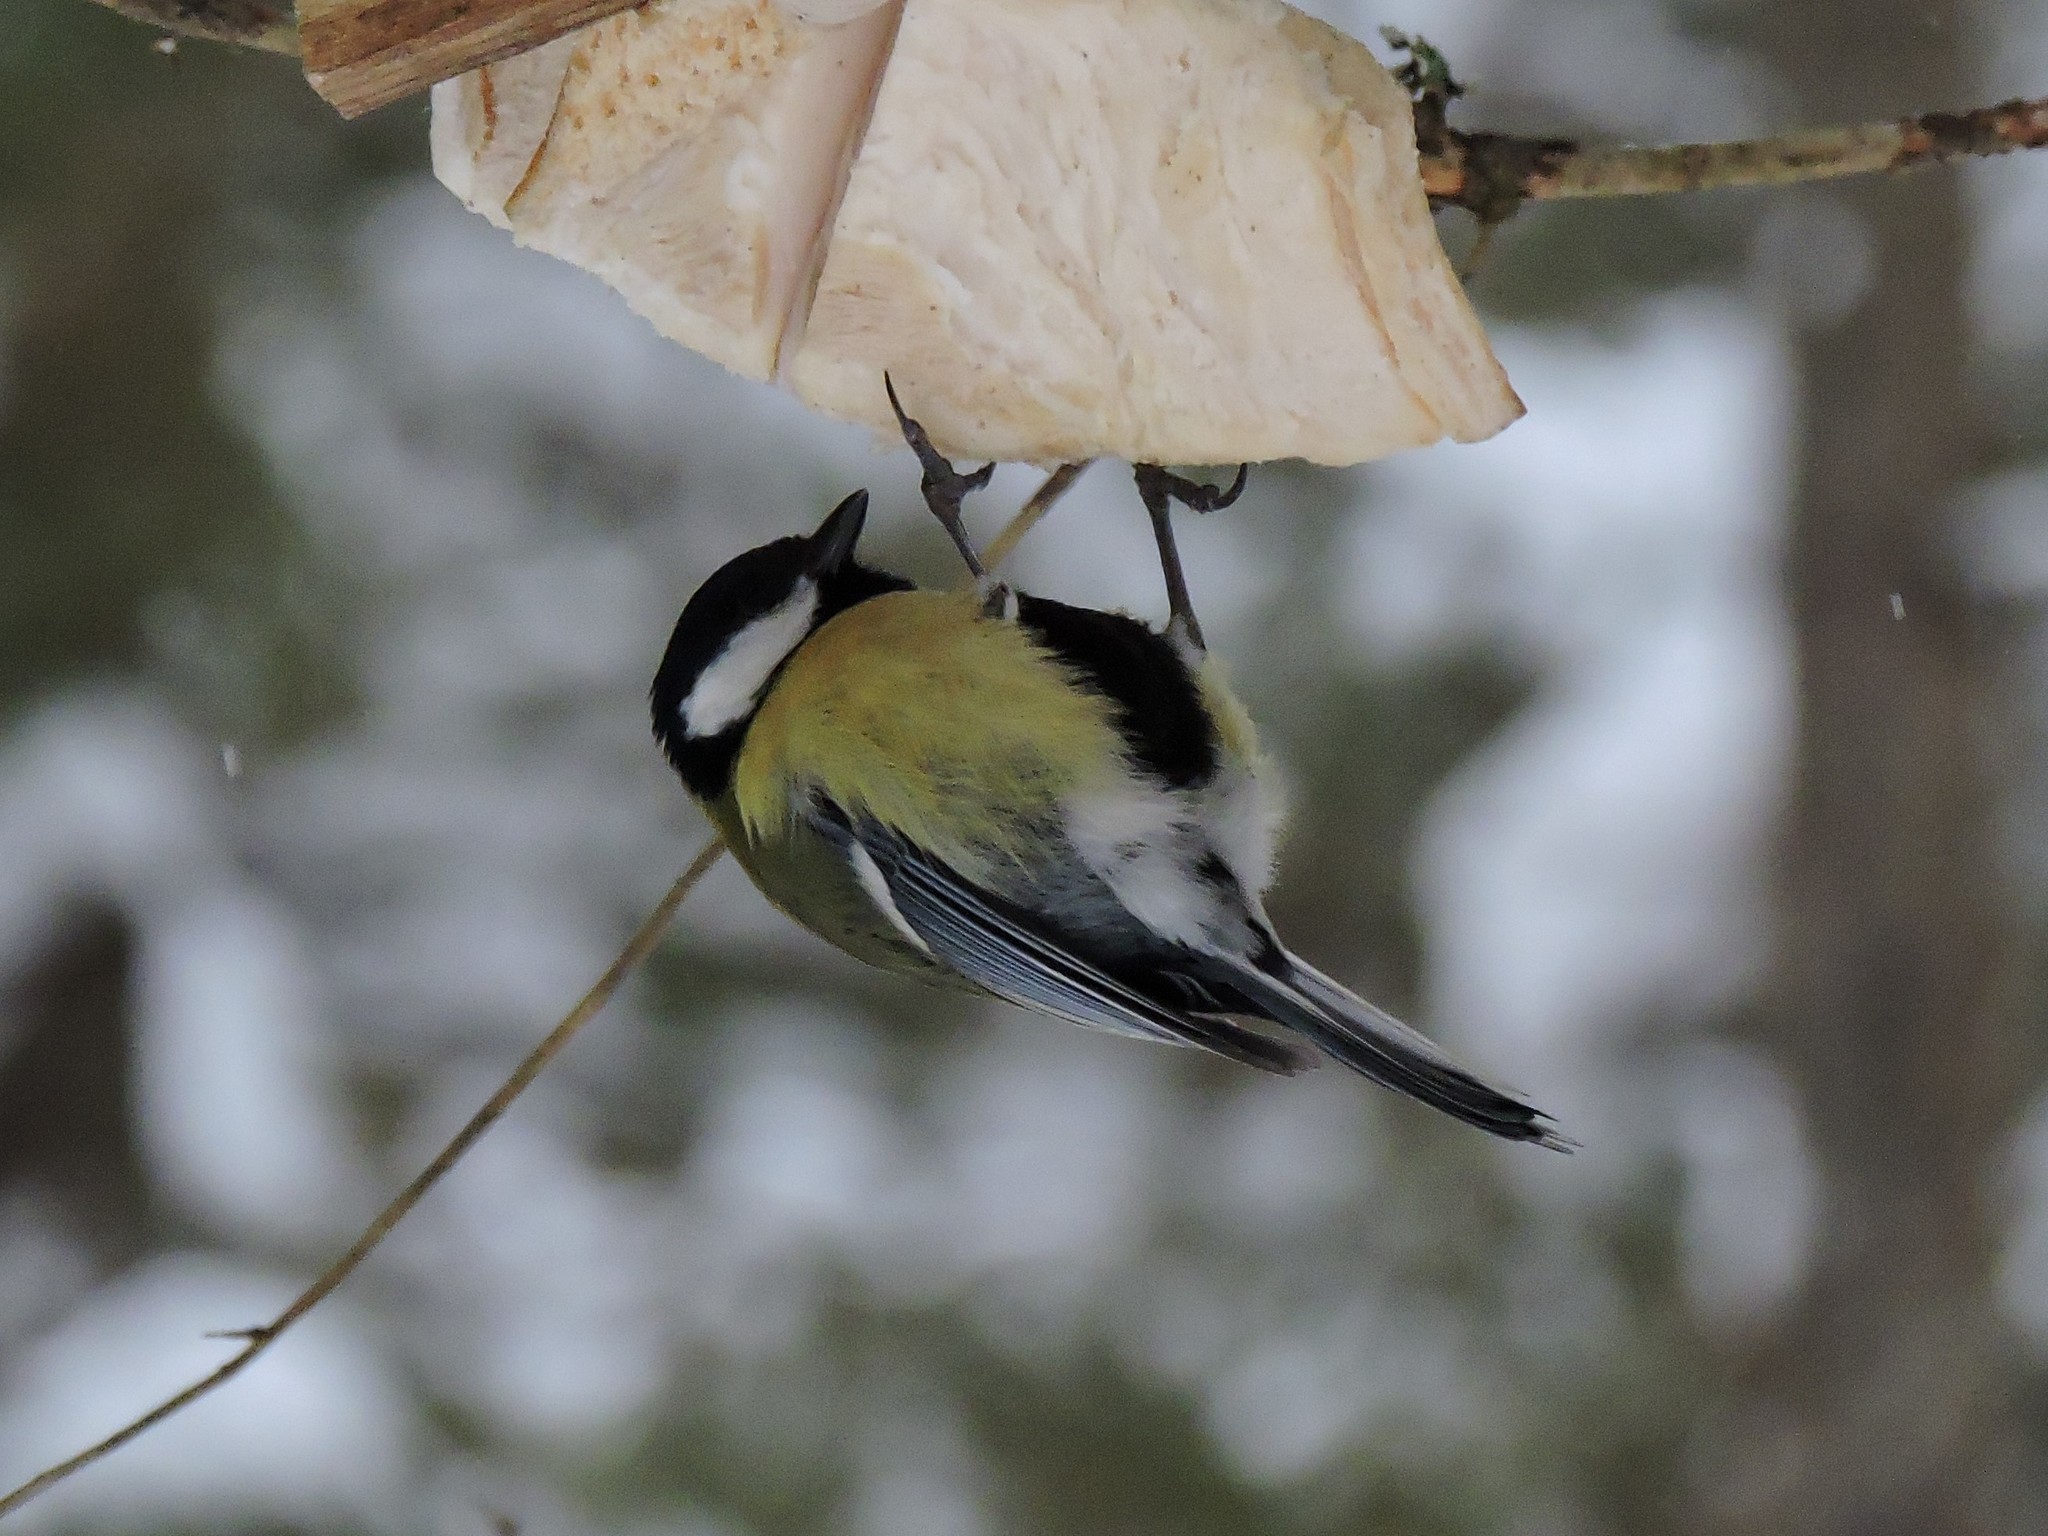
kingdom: Animalia
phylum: Chordata
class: Aves
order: Passeriformes
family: Paridae
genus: Parus
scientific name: Parus major
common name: Great tit
